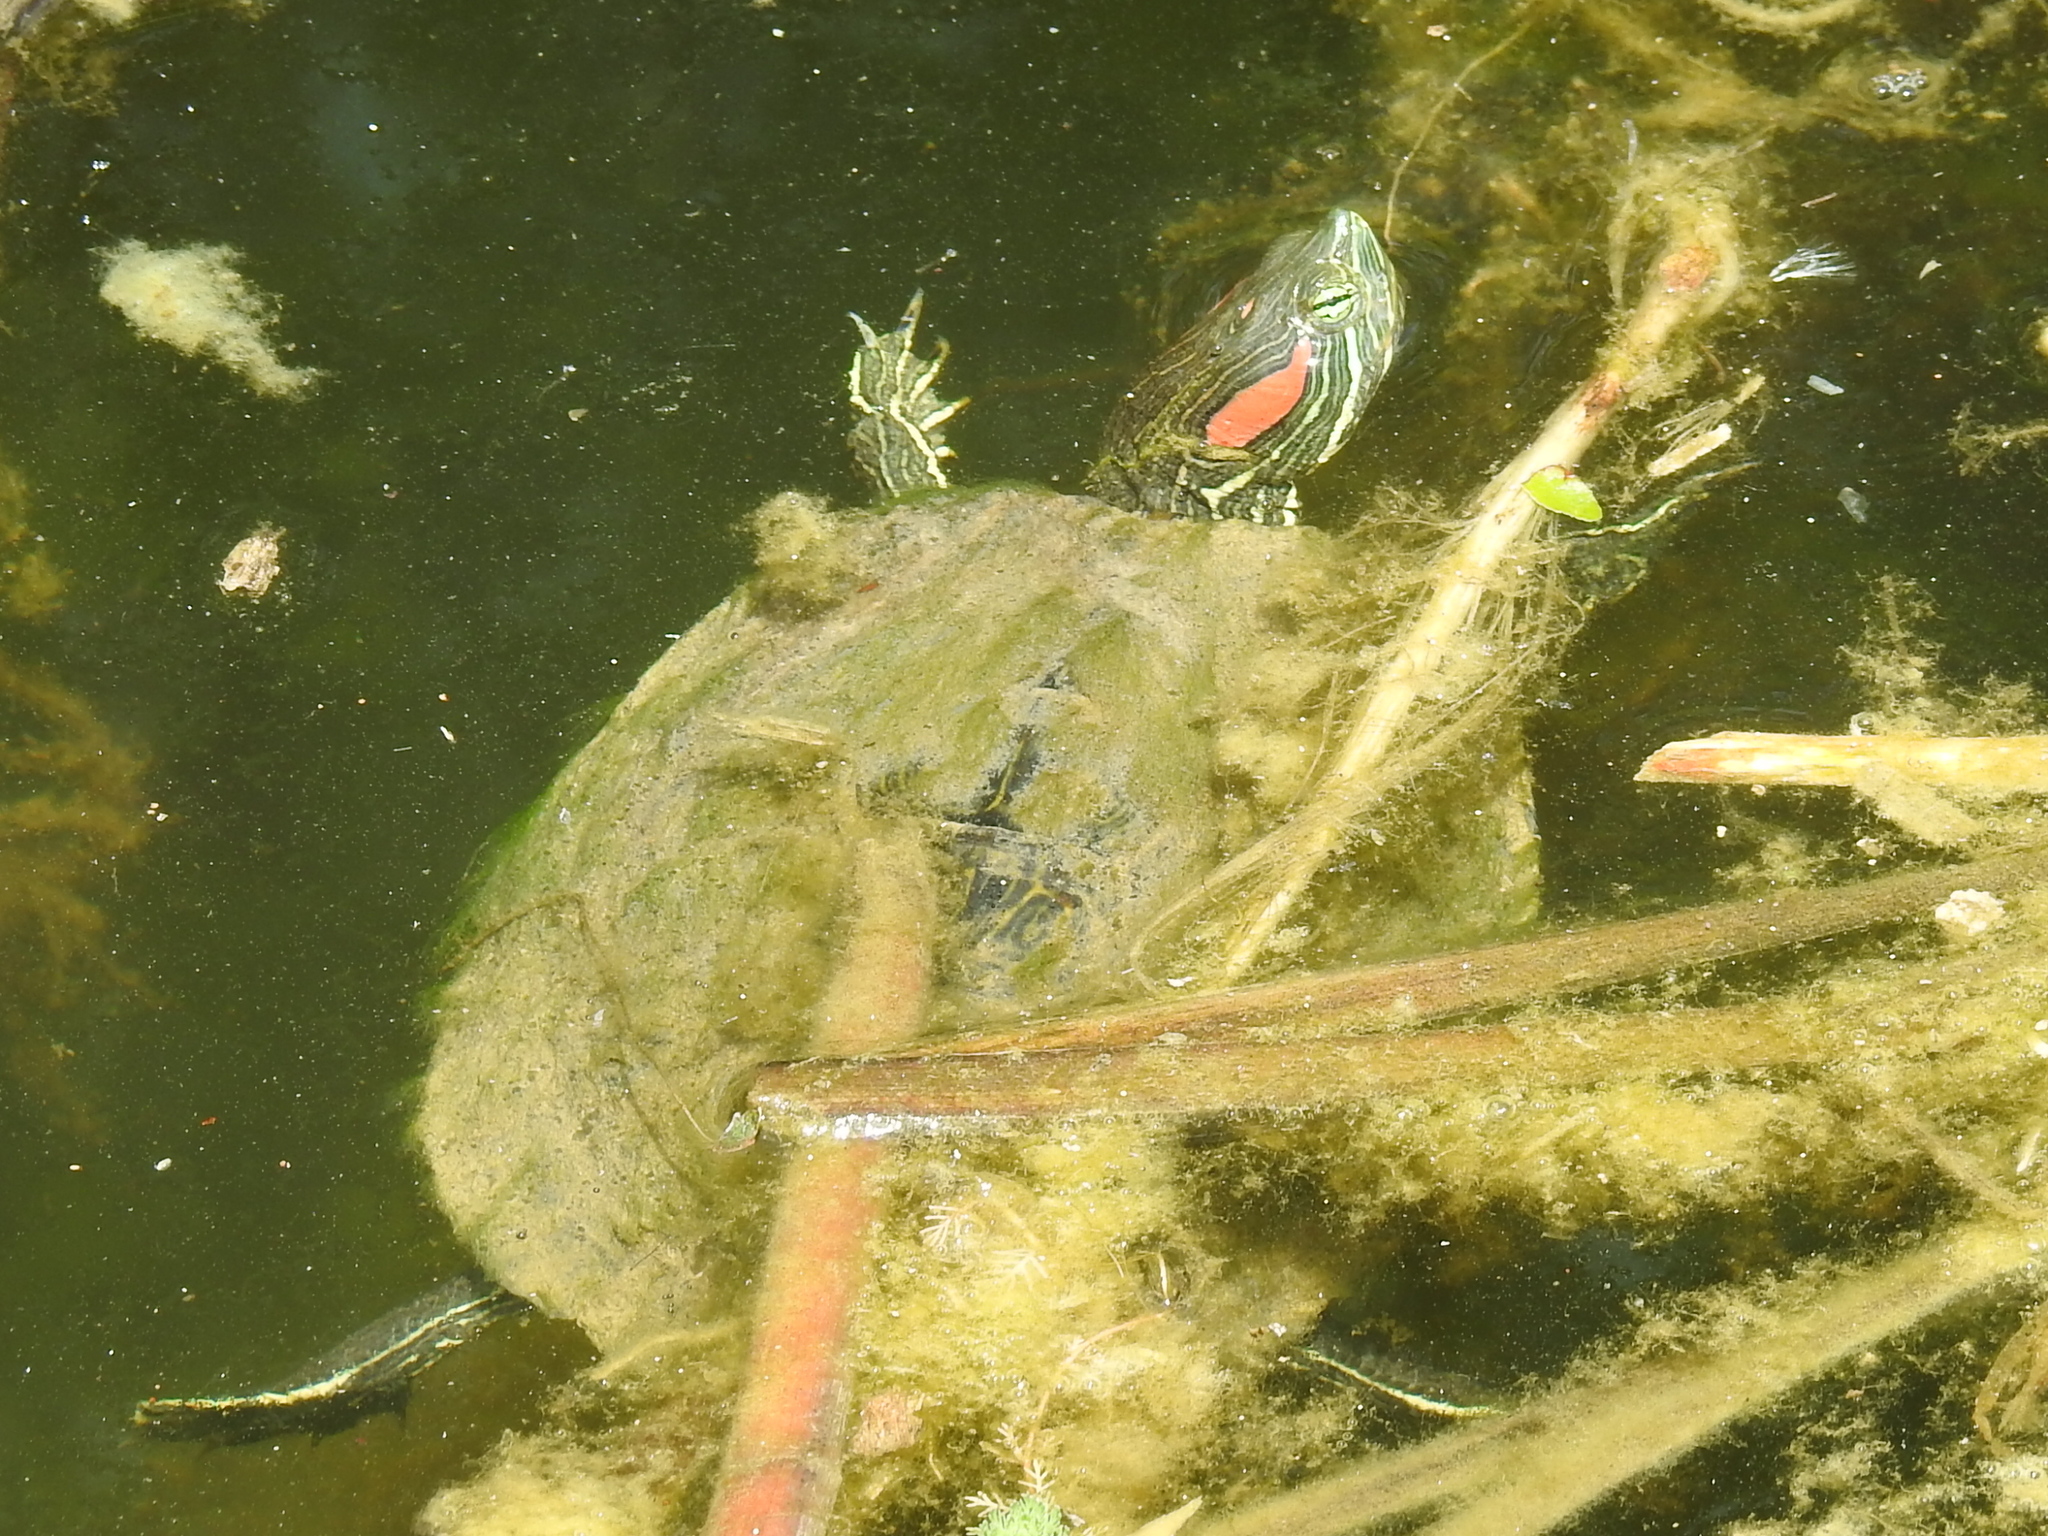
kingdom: Animalia
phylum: Chordata
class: Testudines
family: Emydidae
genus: Trachemys
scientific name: Trachemys scripta
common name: Slider
